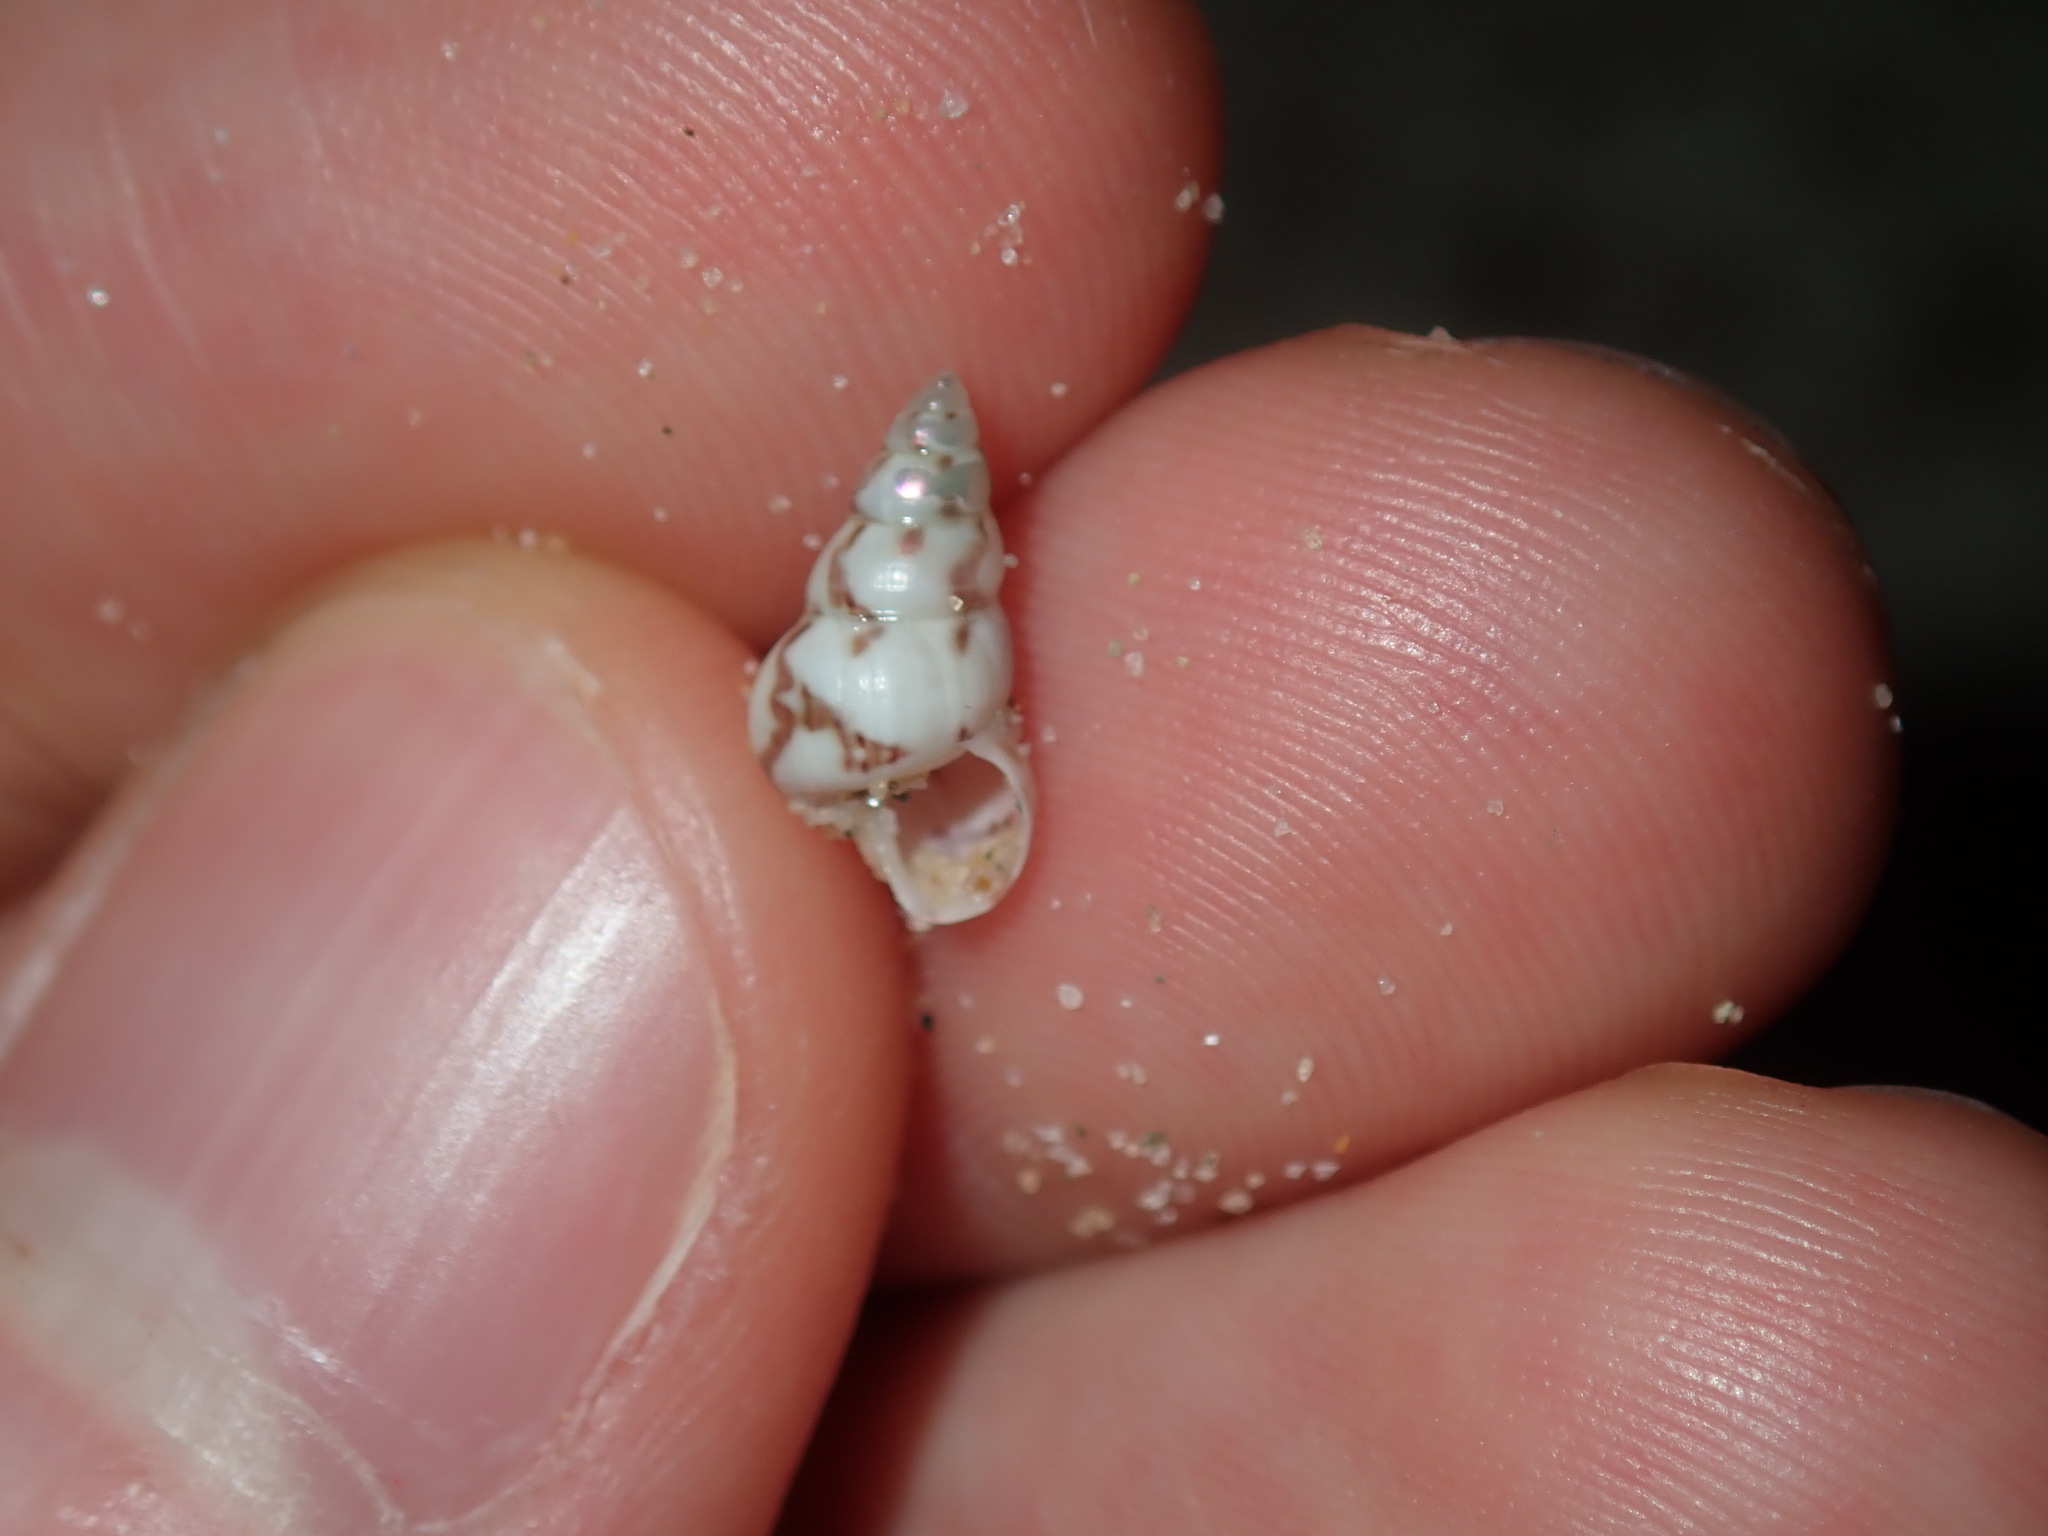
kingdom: Animalia
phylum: Mollusca
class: Gastropoda
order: Trochida
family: Trochidae
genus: Leiopyrga
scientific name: Leiopyrga lineolaris
